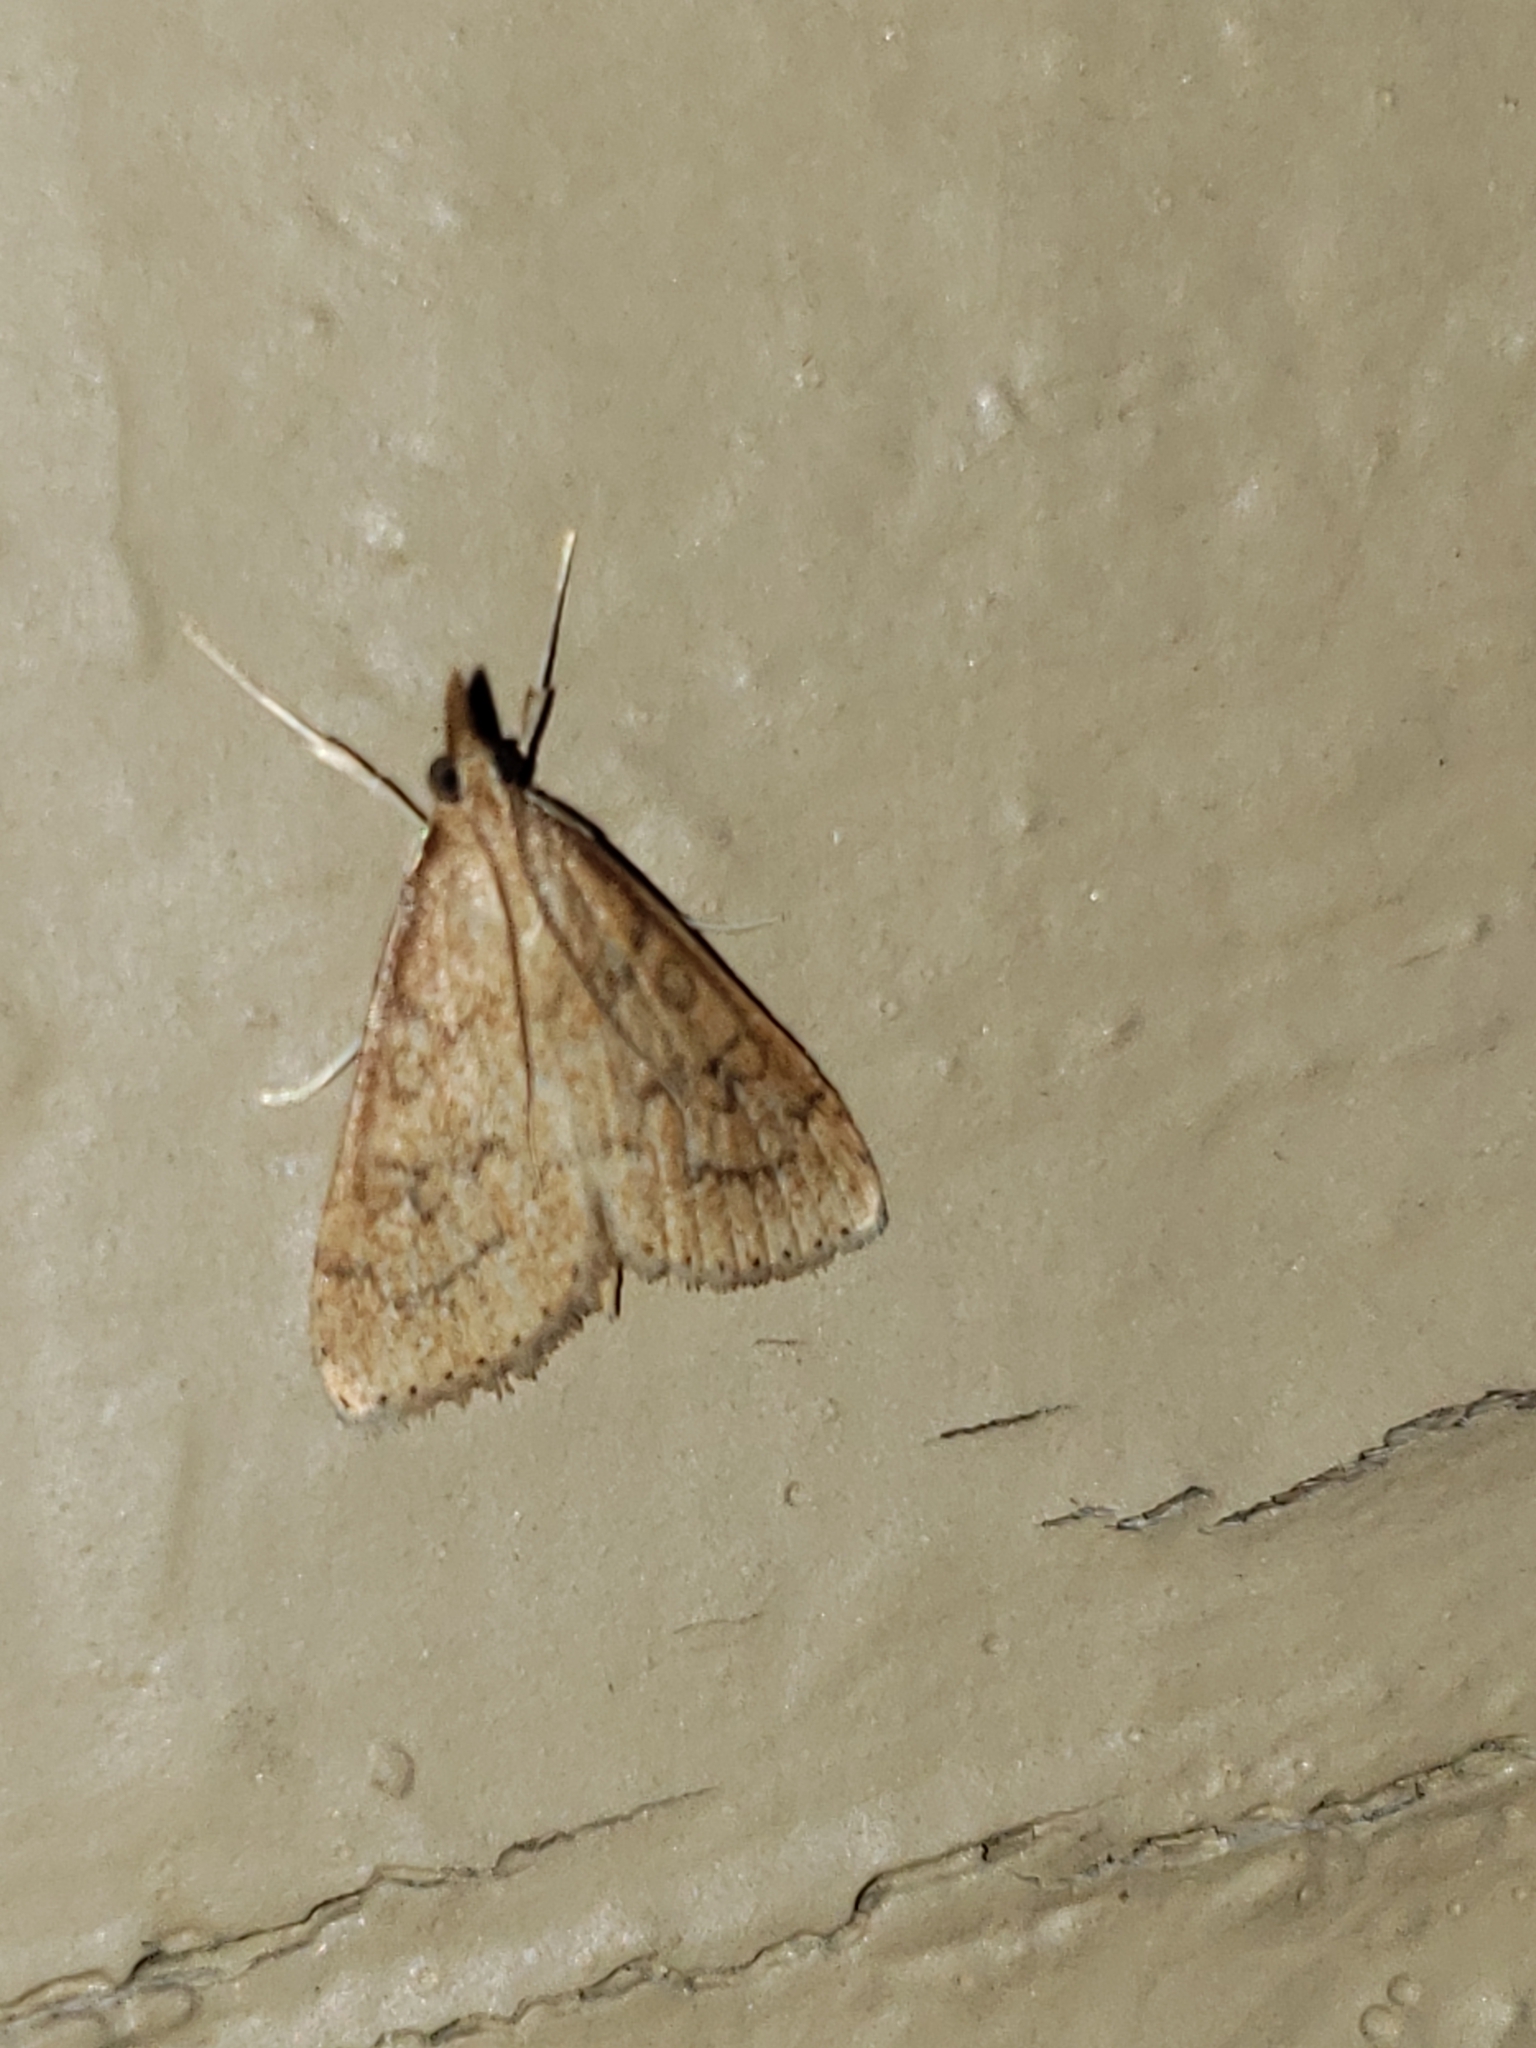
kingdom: Animalia
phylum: Arthropoda
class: Insecta
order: Lepidoptera
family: Crambidae
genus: Udea
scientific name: Udea rubigalis
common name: Celery leaftier moth
